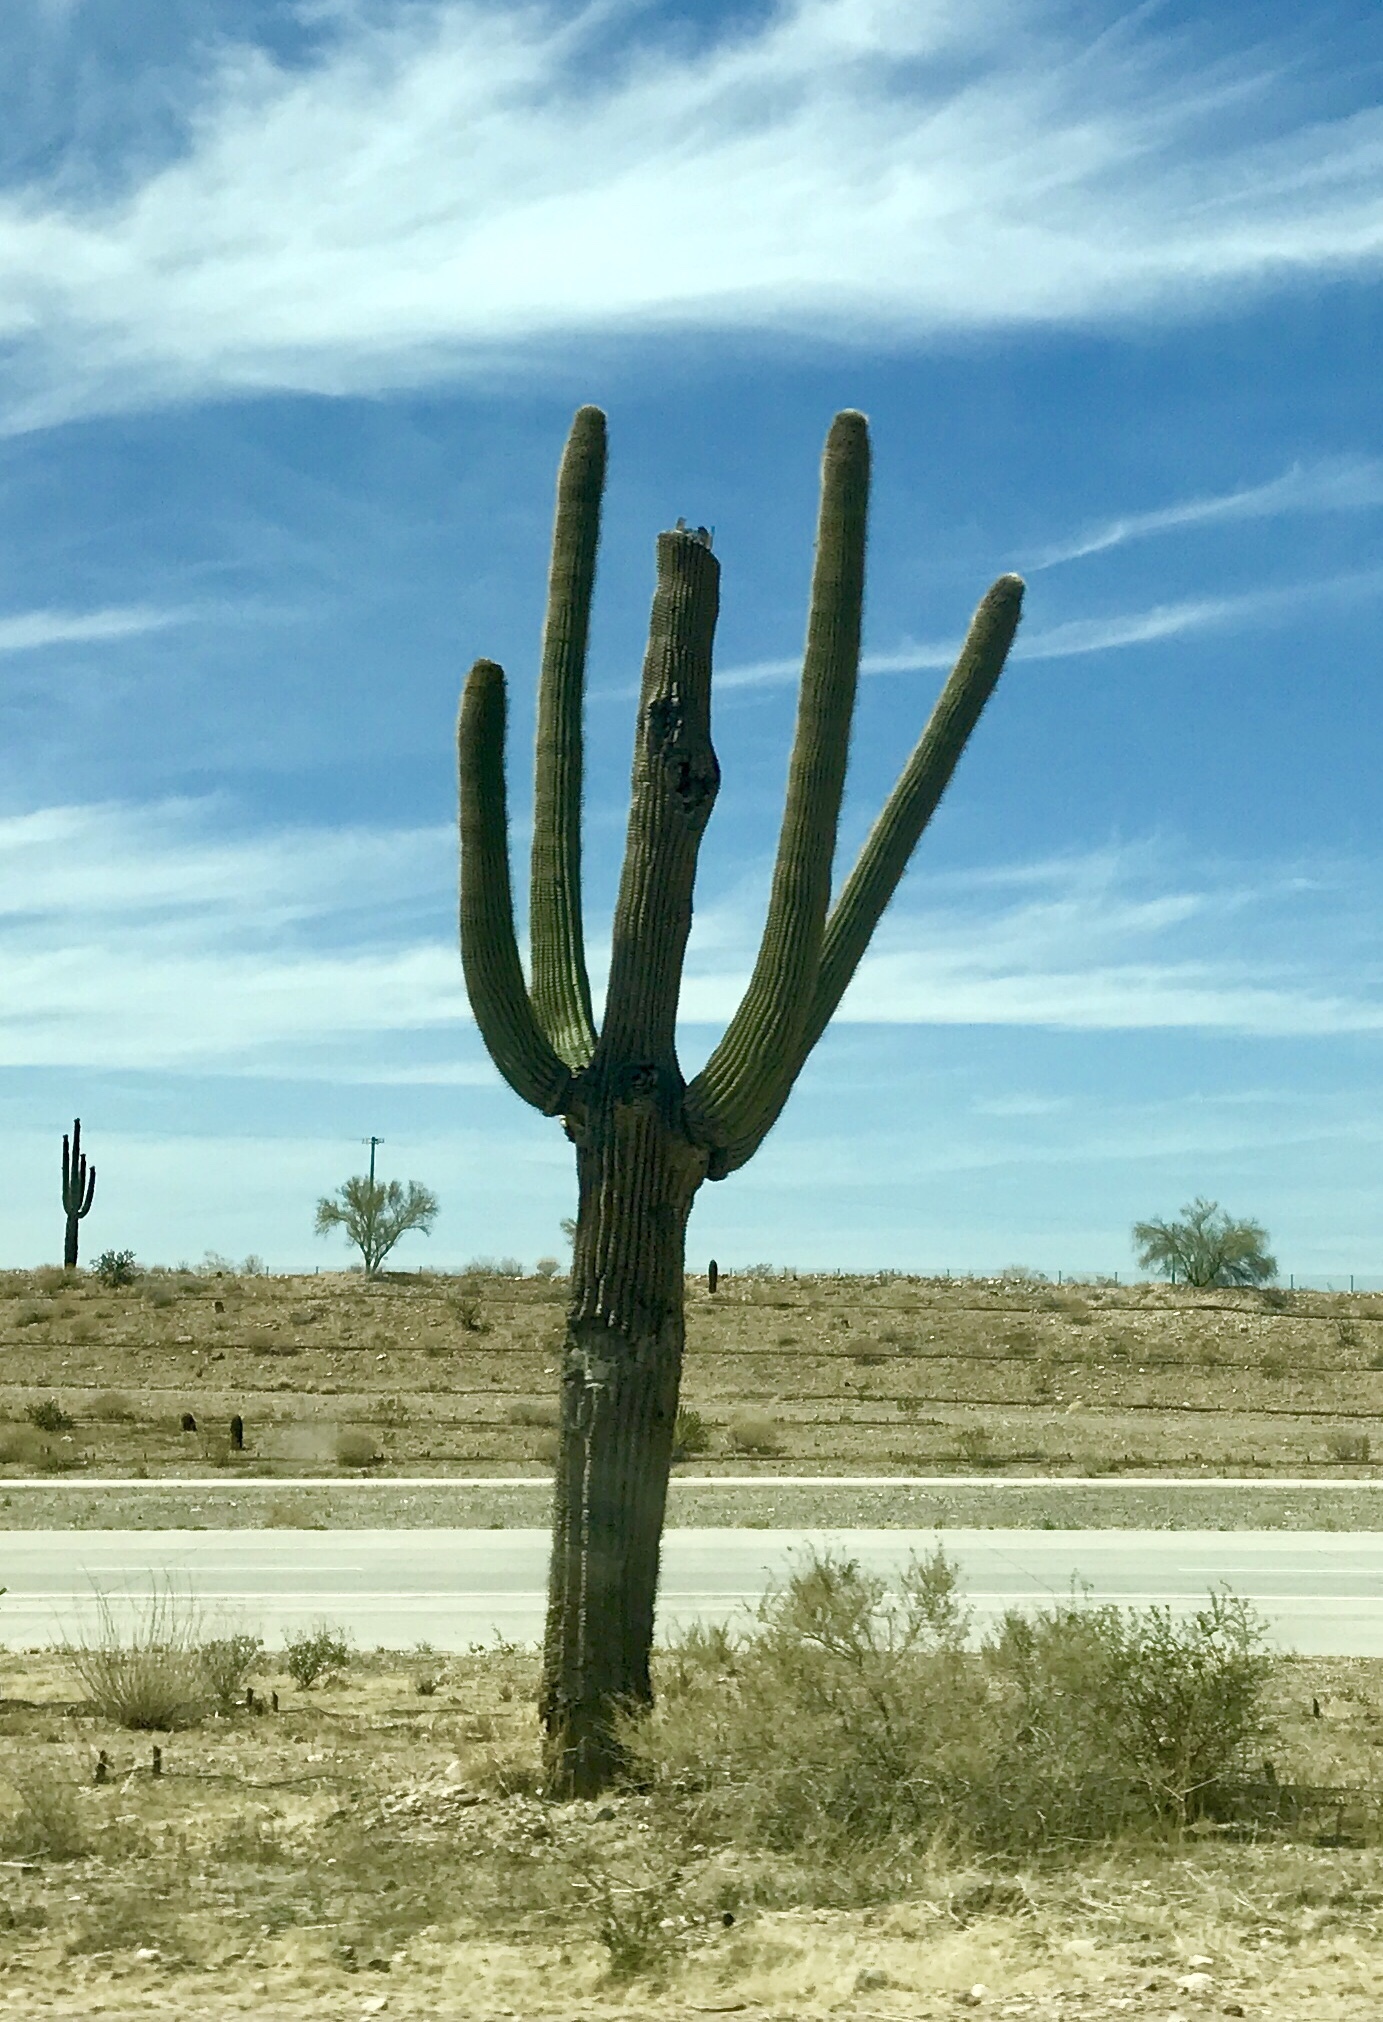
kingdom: Plantae
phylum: Tracheophyta
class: Magnoliopsida
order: Caryophyllales
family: Cactaceae
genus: Carnegiea
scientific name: Carnegiea gigantea
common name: Saguaro
